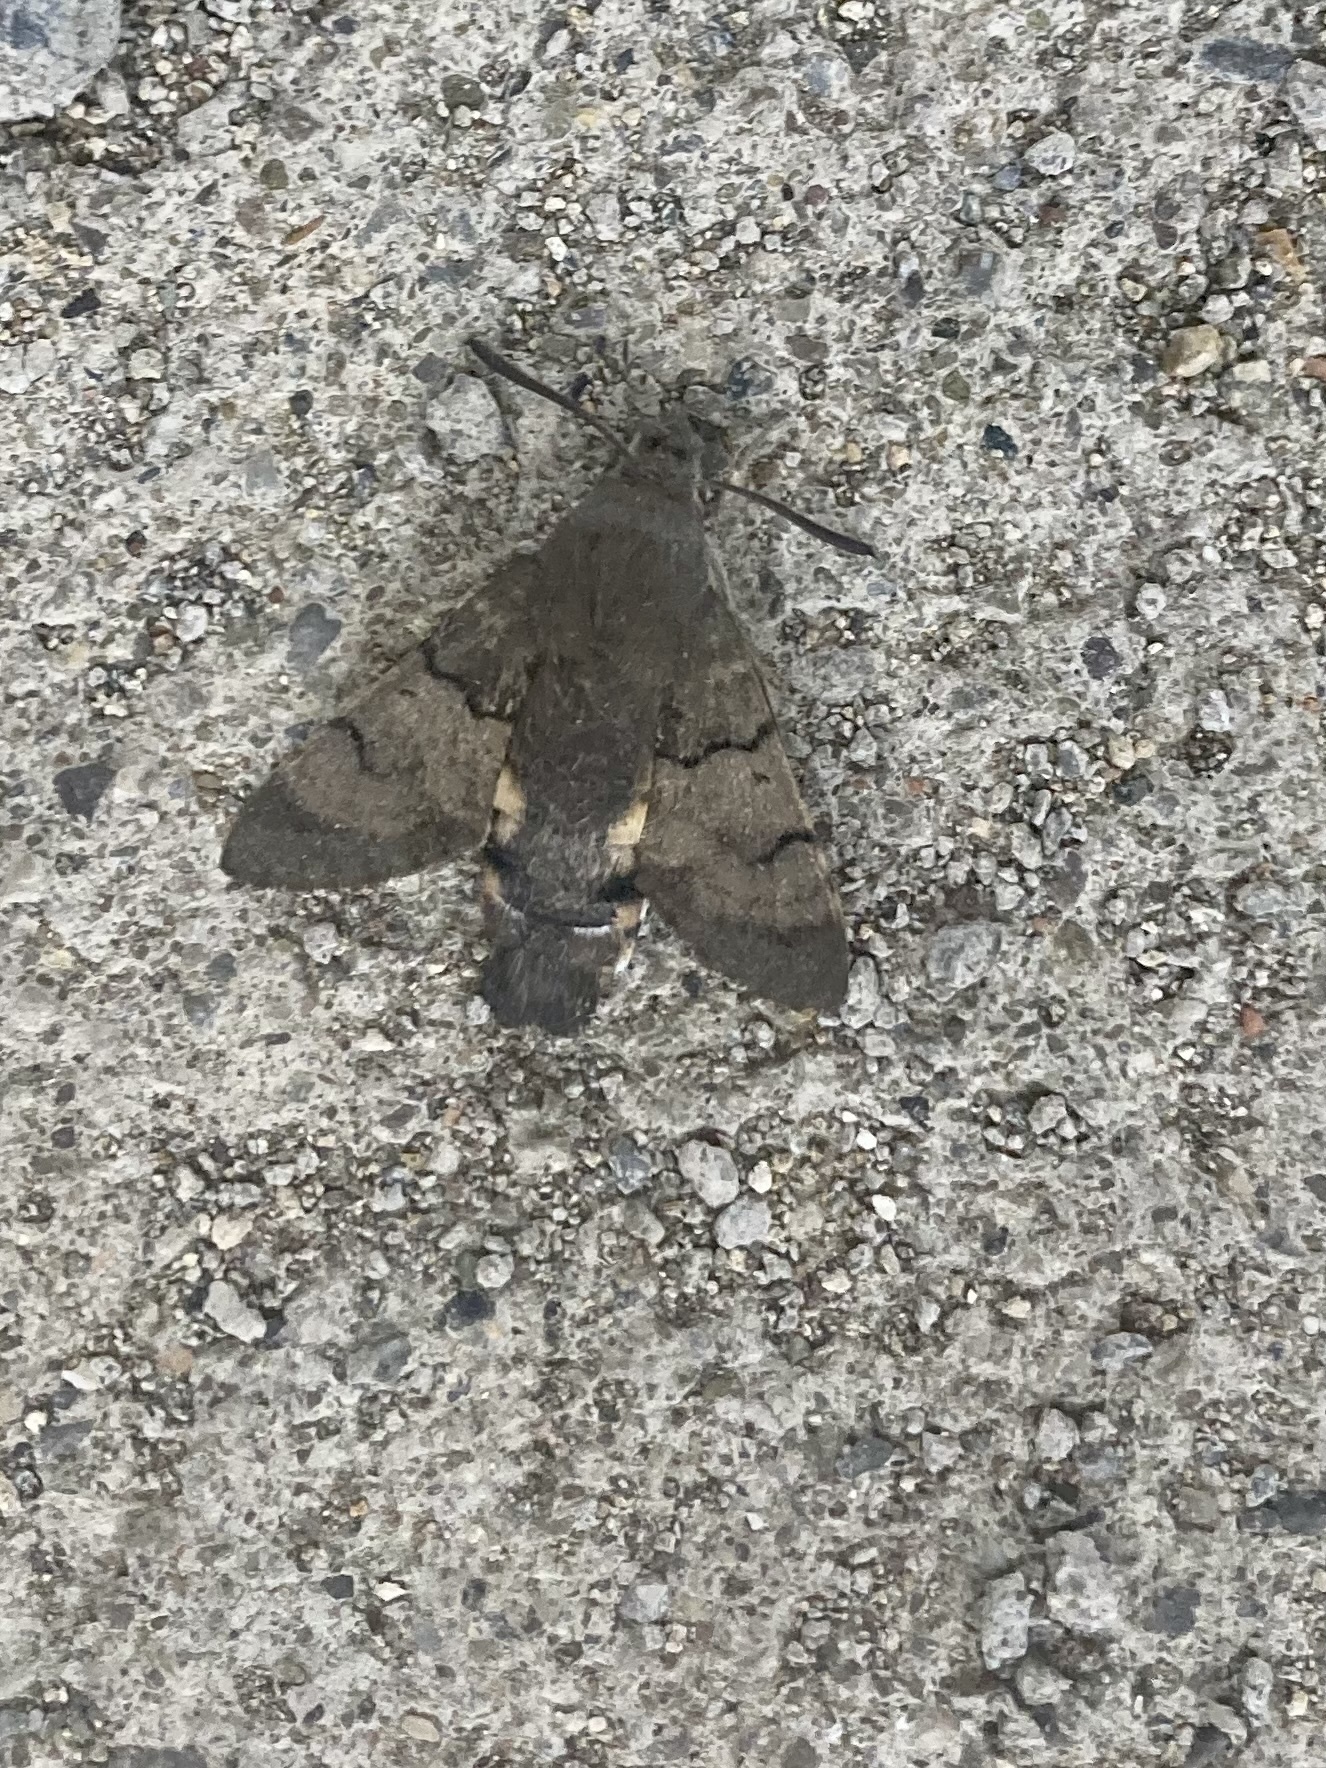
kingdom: Animalia
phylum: Arthropoda
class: Insecta
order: Lepidoptera
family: Sphingidae
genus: Macroglossum
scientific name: Macroglossum stellatarum
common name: Humming-bird hawk-moth
